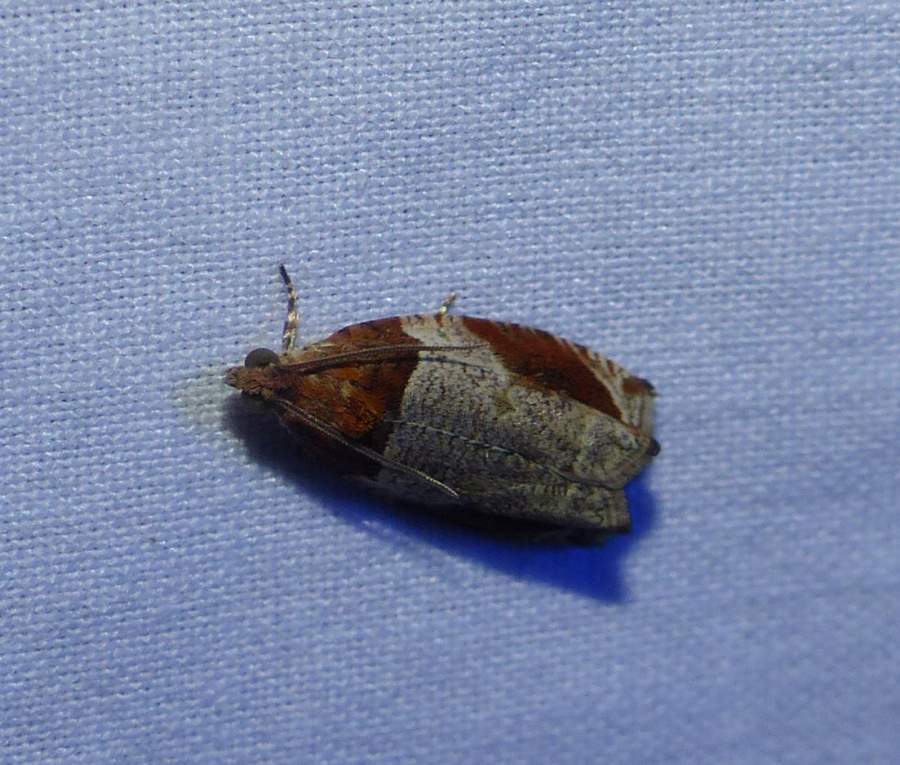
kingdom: Animalia
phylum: Arthropoda
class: Insecta
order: Lepidoptera
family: Tortricidae
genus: Olethreutes
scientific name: Olethreutes ferriferana
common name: Hydrangea leaftier moth
